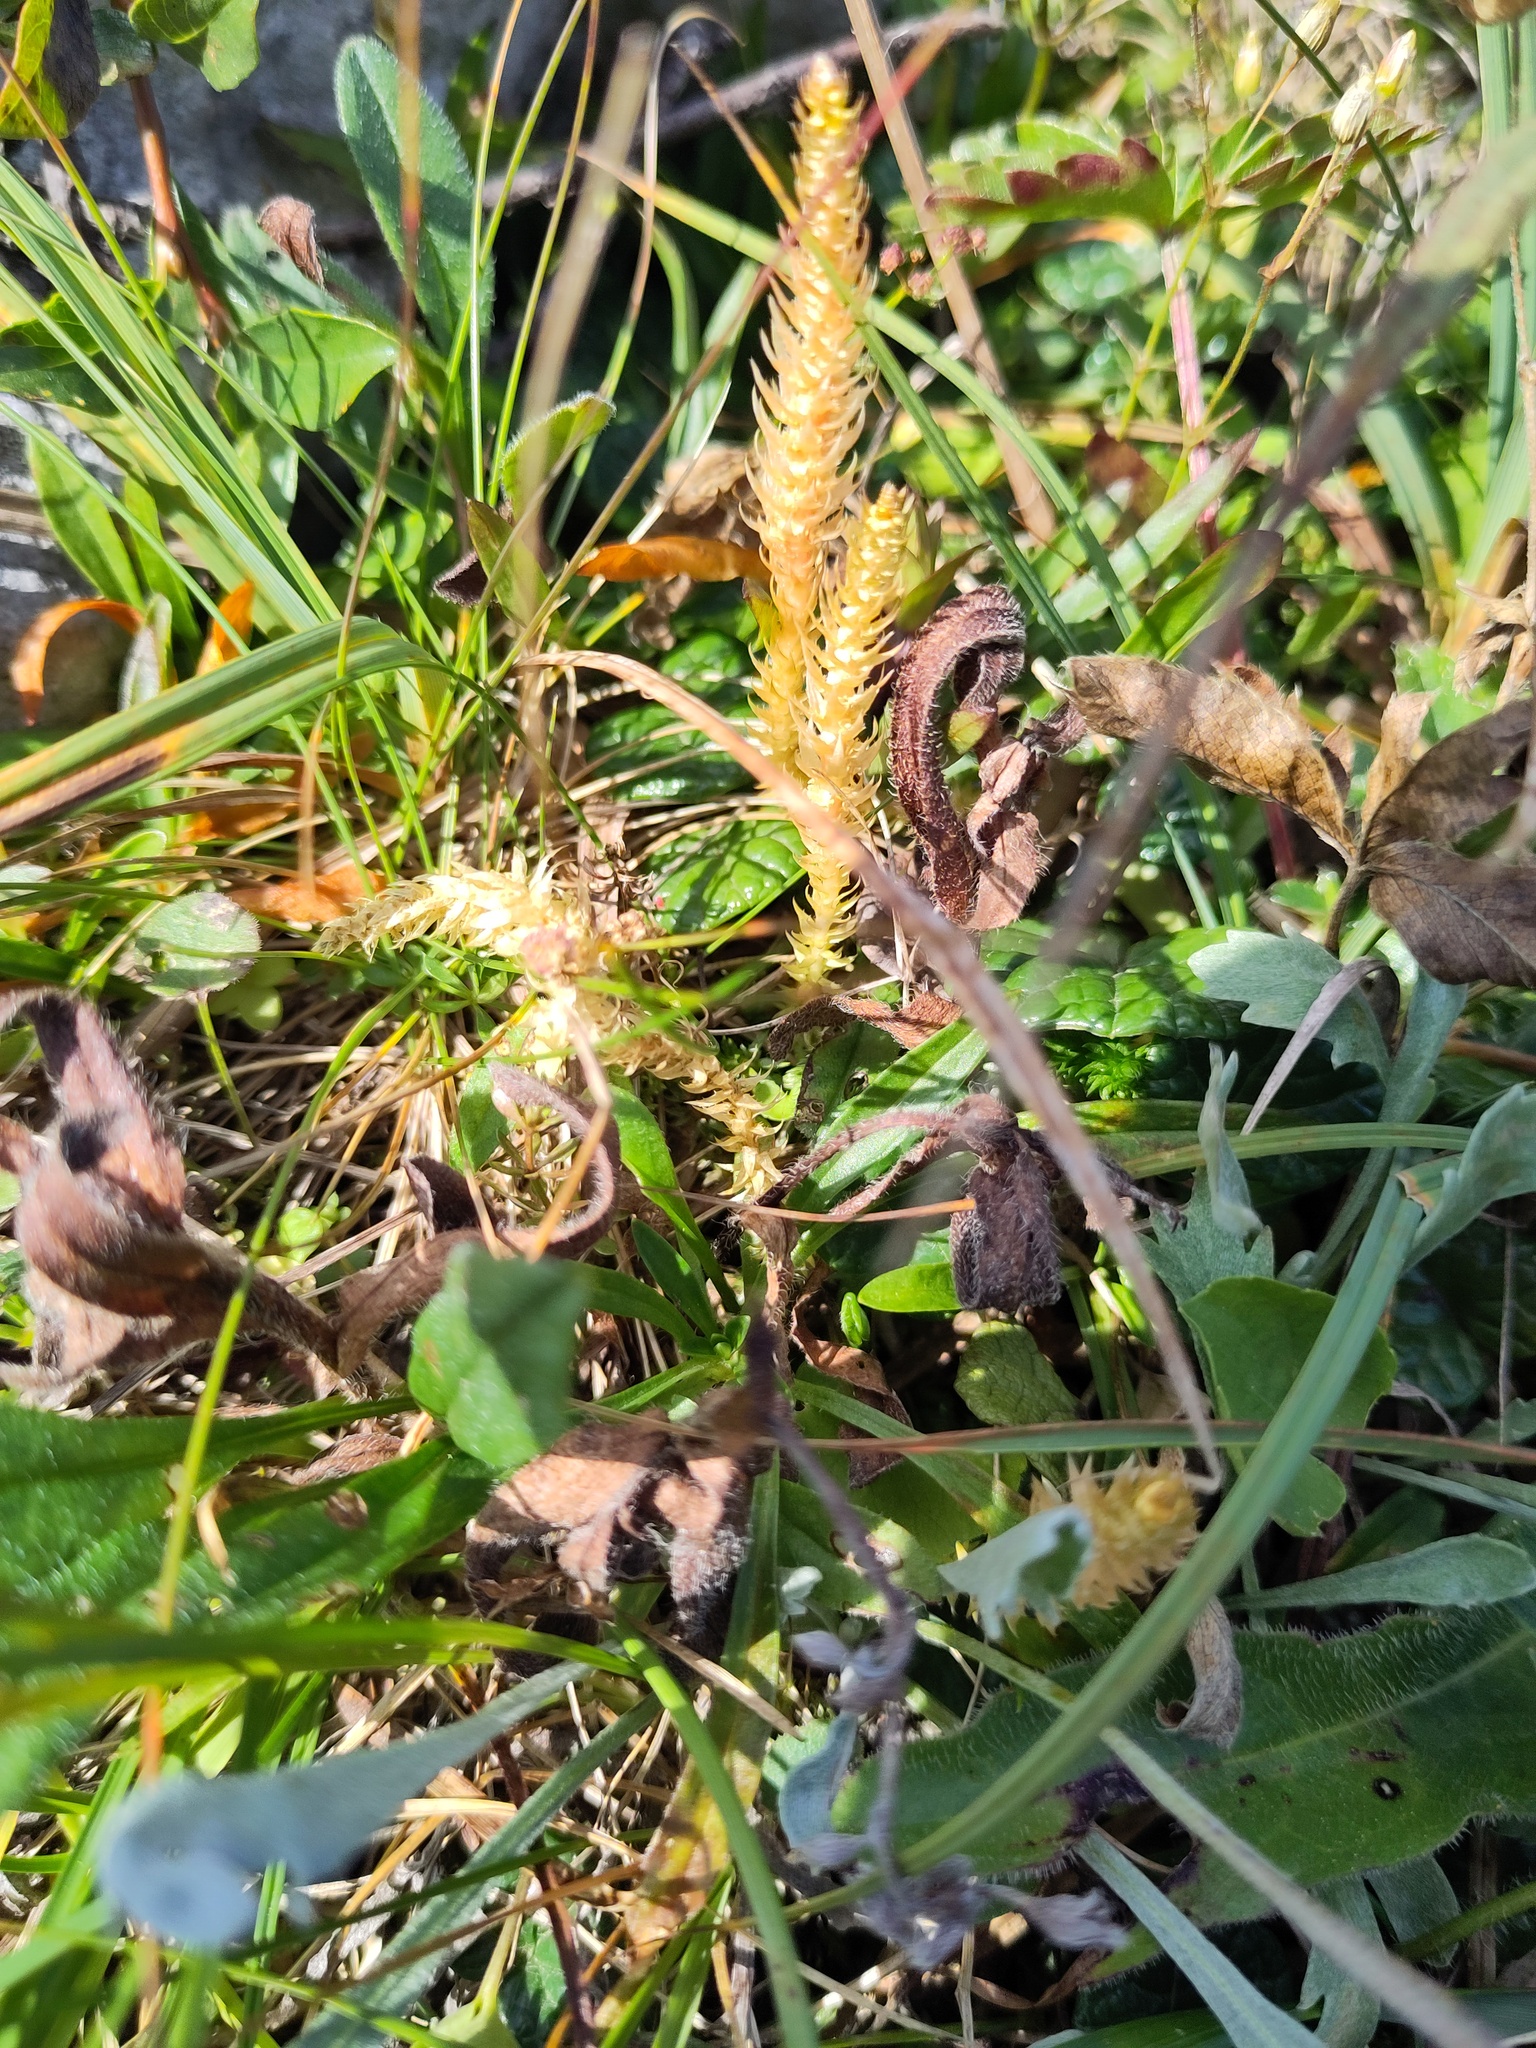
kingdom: Plantae
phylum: Tracheophyta
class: Lycopodiopsida
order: Selaginellales
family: Selaginellaceae
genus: Selaginella
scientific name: Selaginella selaginoides
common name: Prickly mountain-moss
